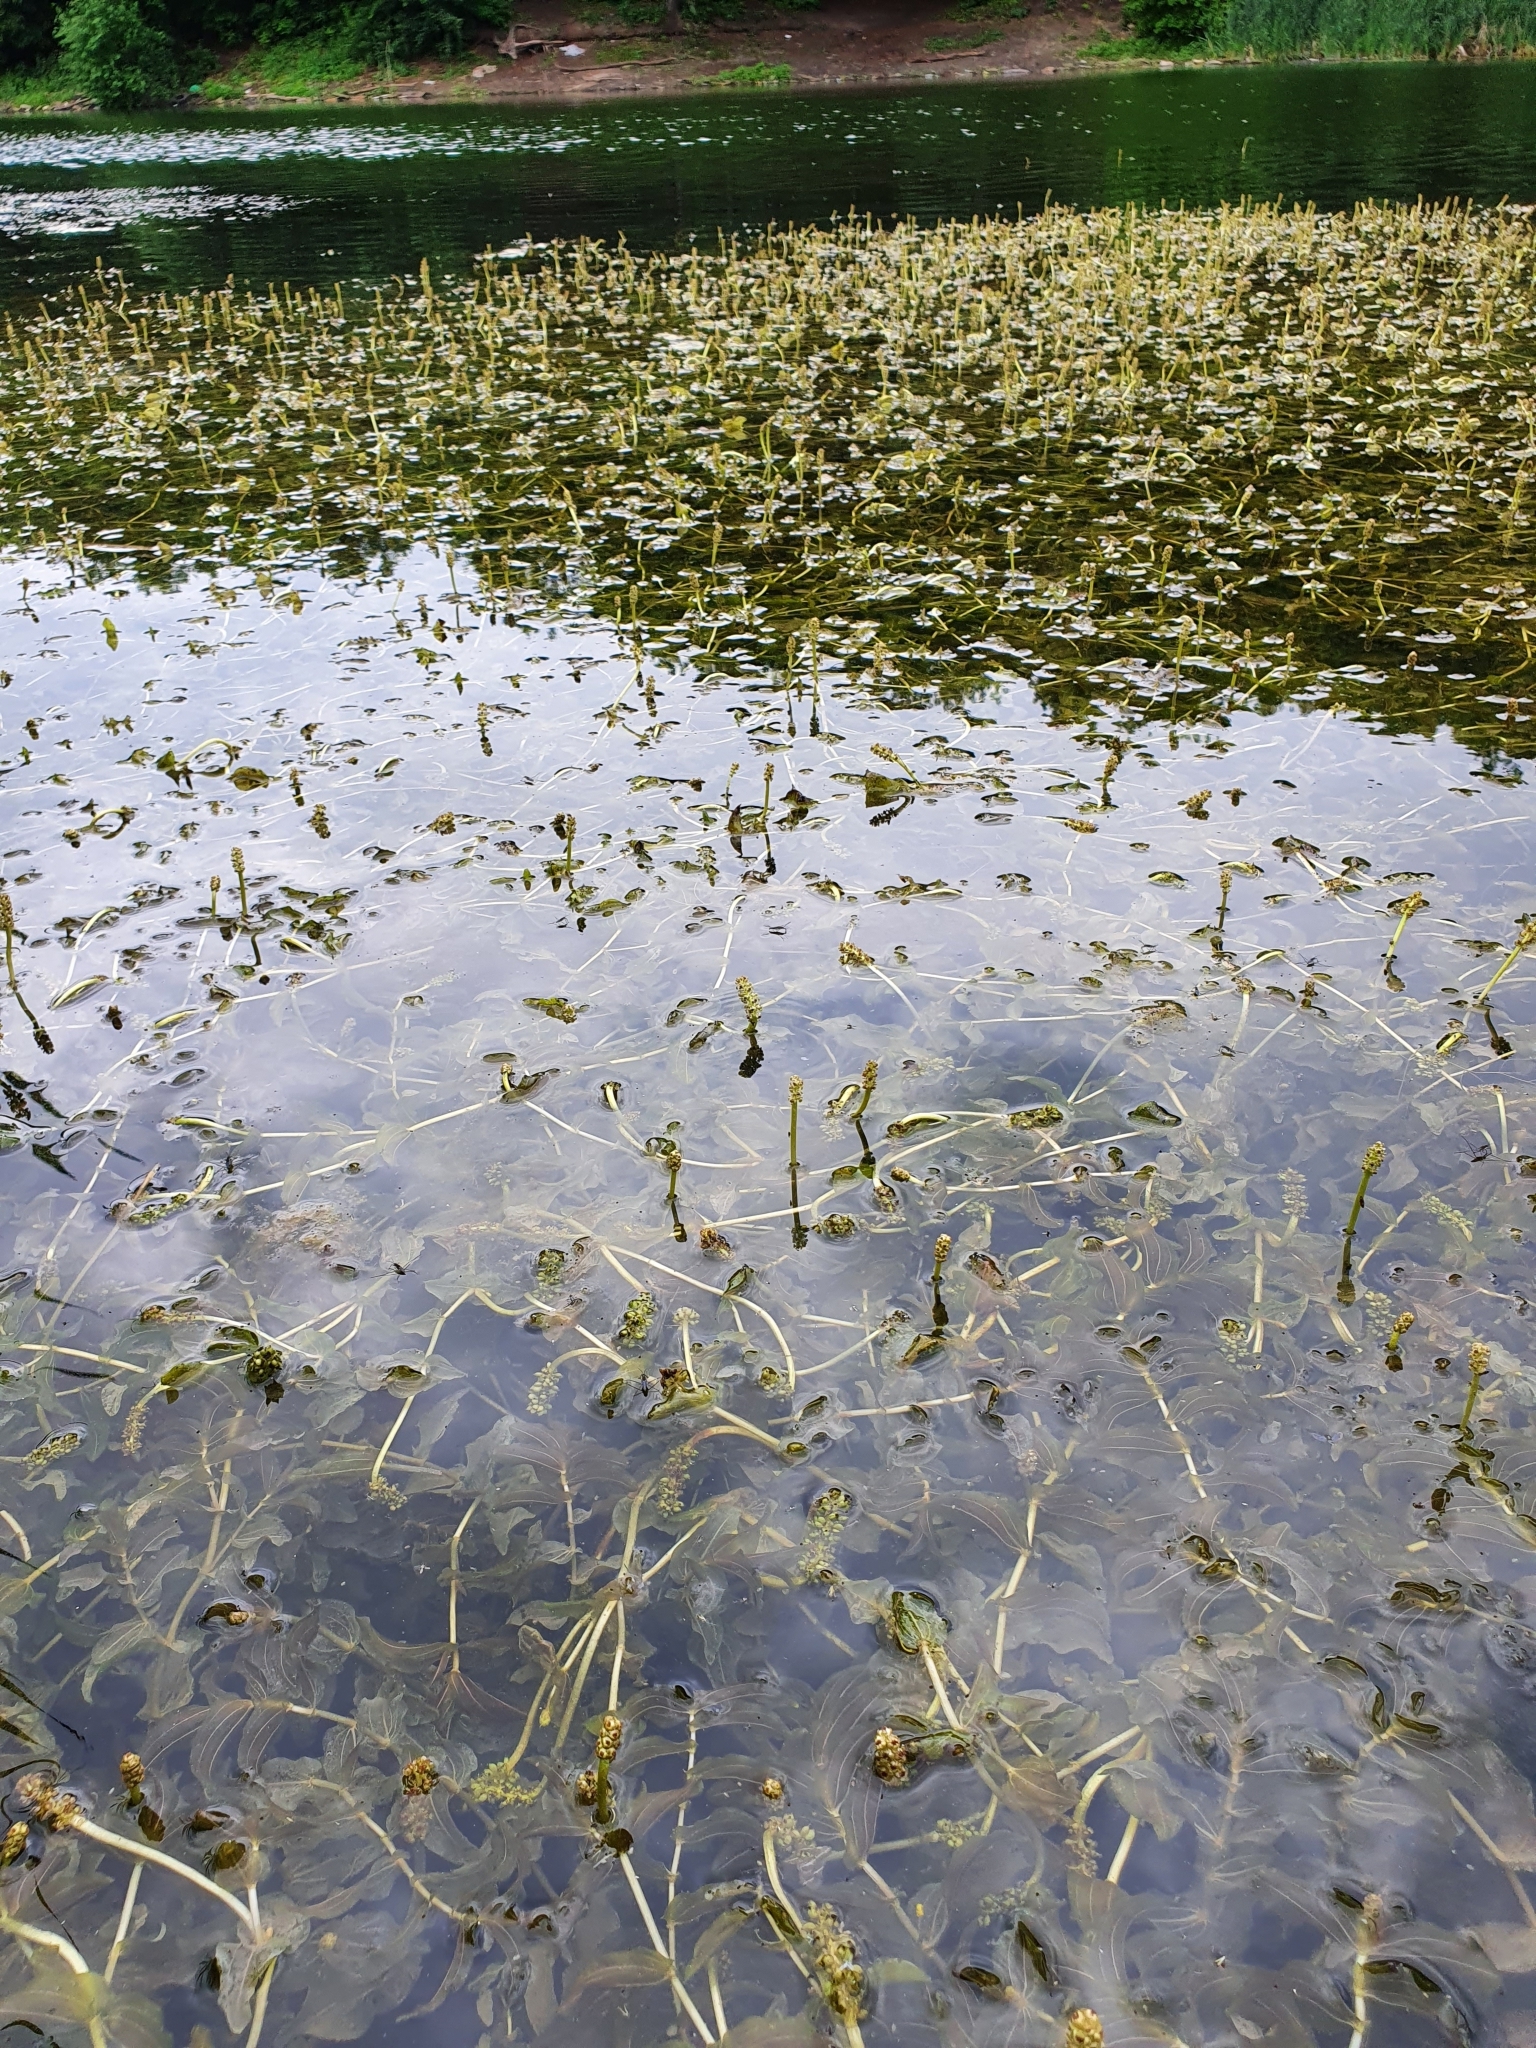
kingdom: Plantae
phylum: Tracheophyta
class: Liliopsida
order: Alismatales
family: Potamogetonaceae
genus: Potamogeton
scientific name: Potamogeton perfoliatus
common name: Perfoliate pondweed
